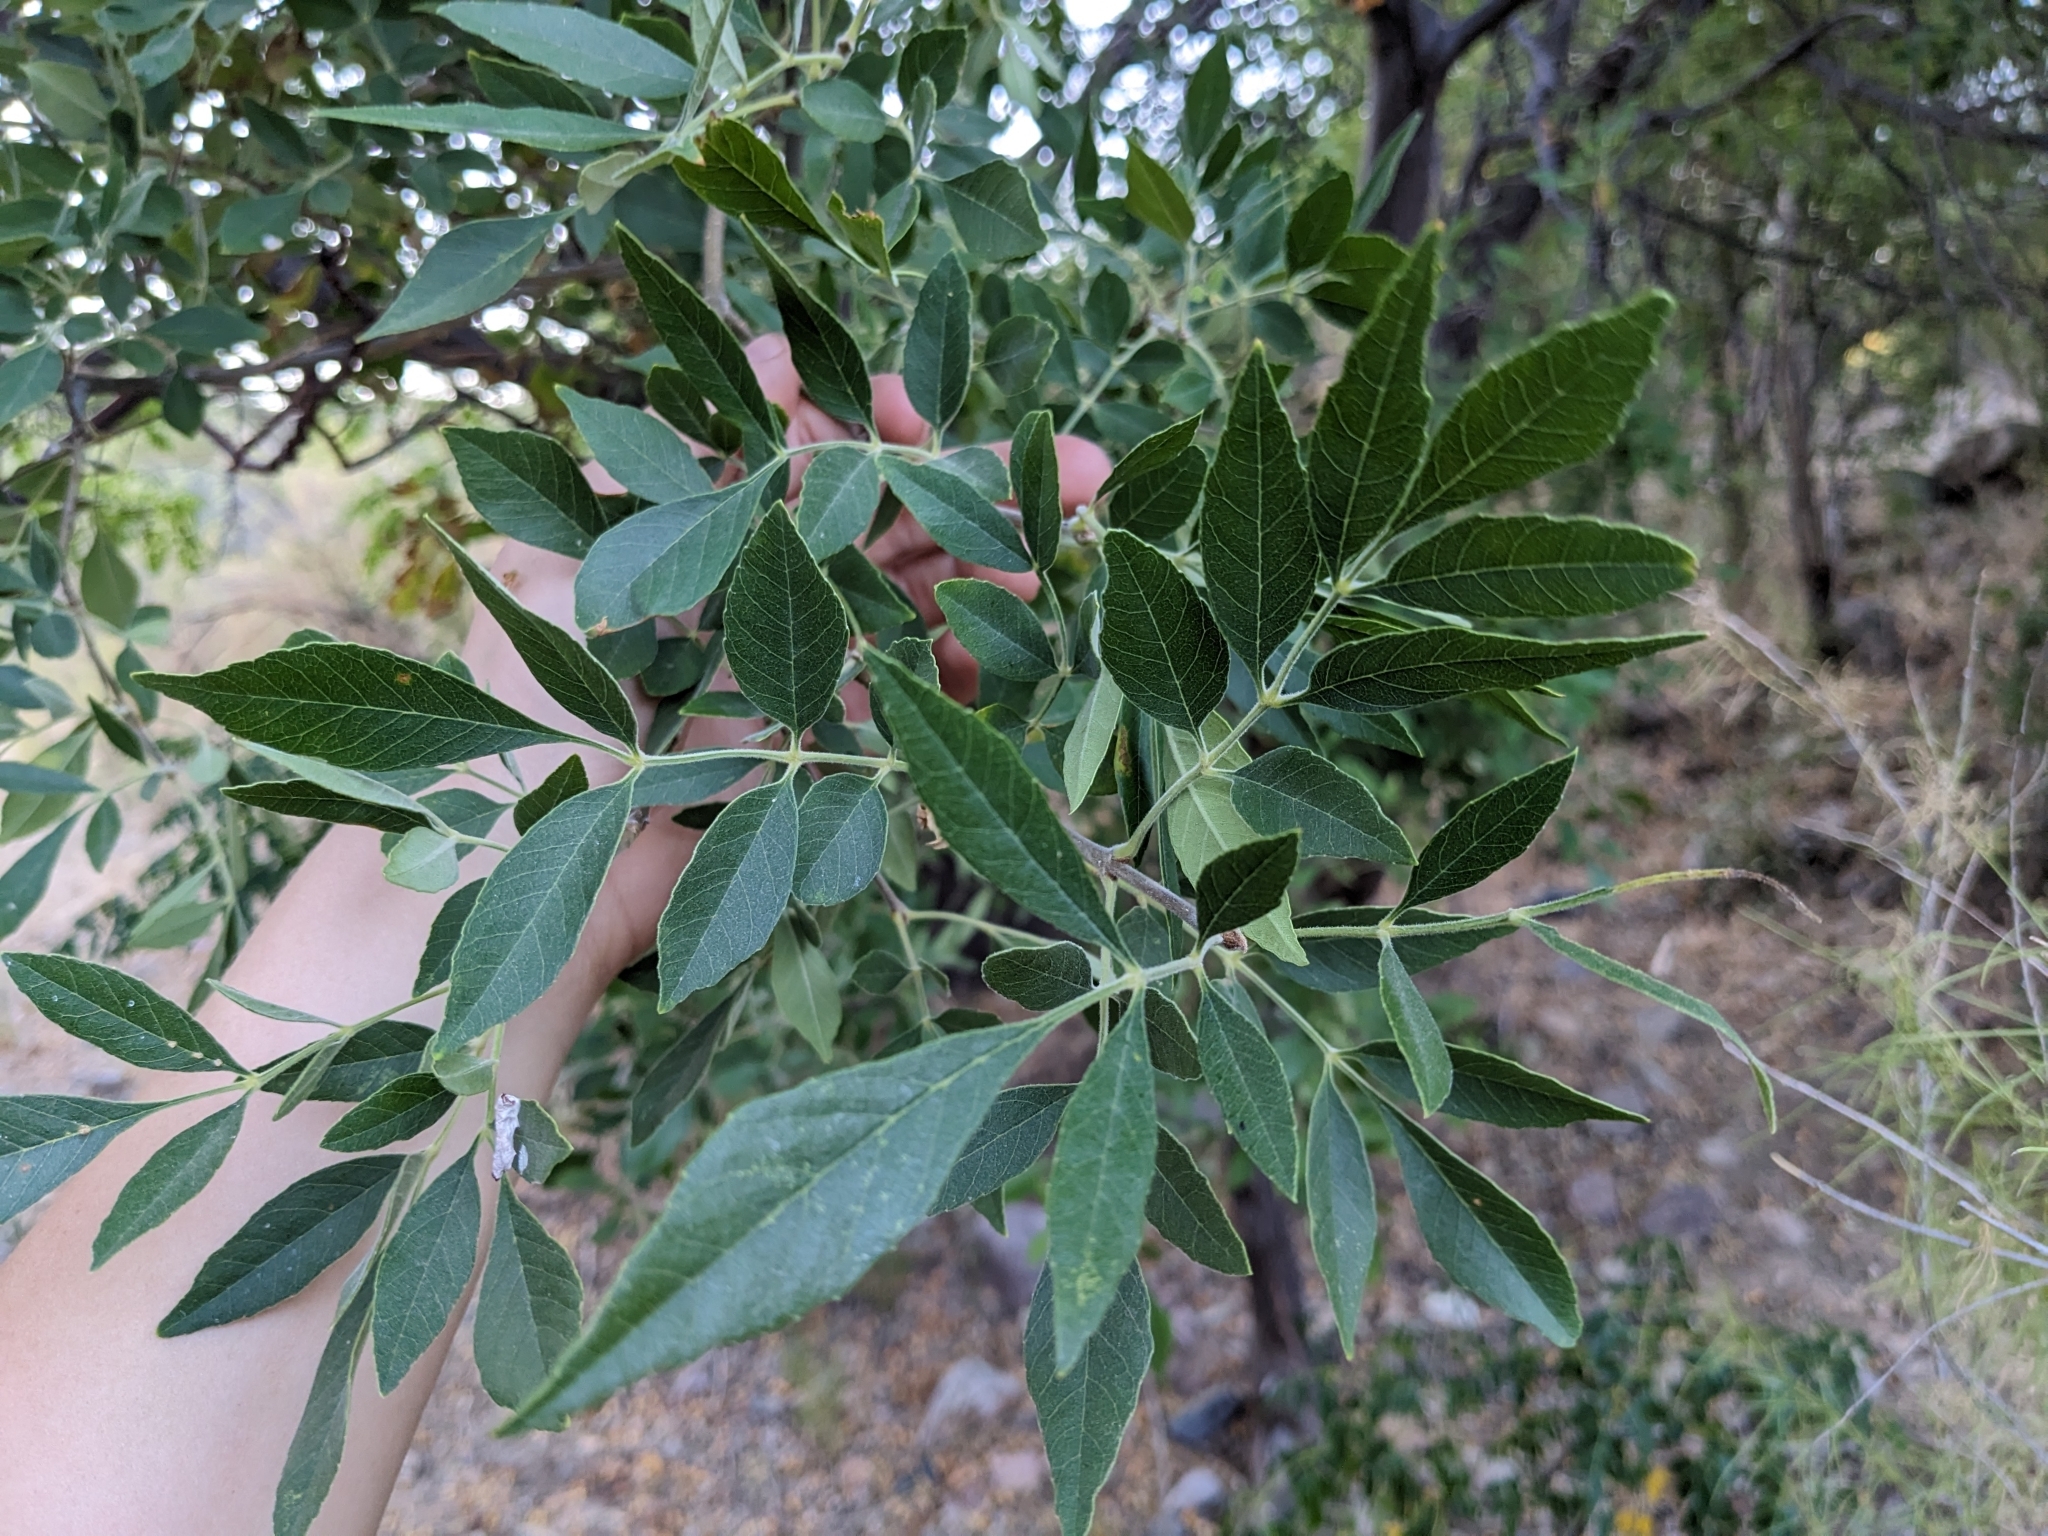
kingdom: Plantae
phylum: Tracheophyta
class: Magnoliopsida
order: Lamiales
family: Oleaceae
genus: Fraxinus
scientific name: Fraxinus velutina
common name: Arizon ash
